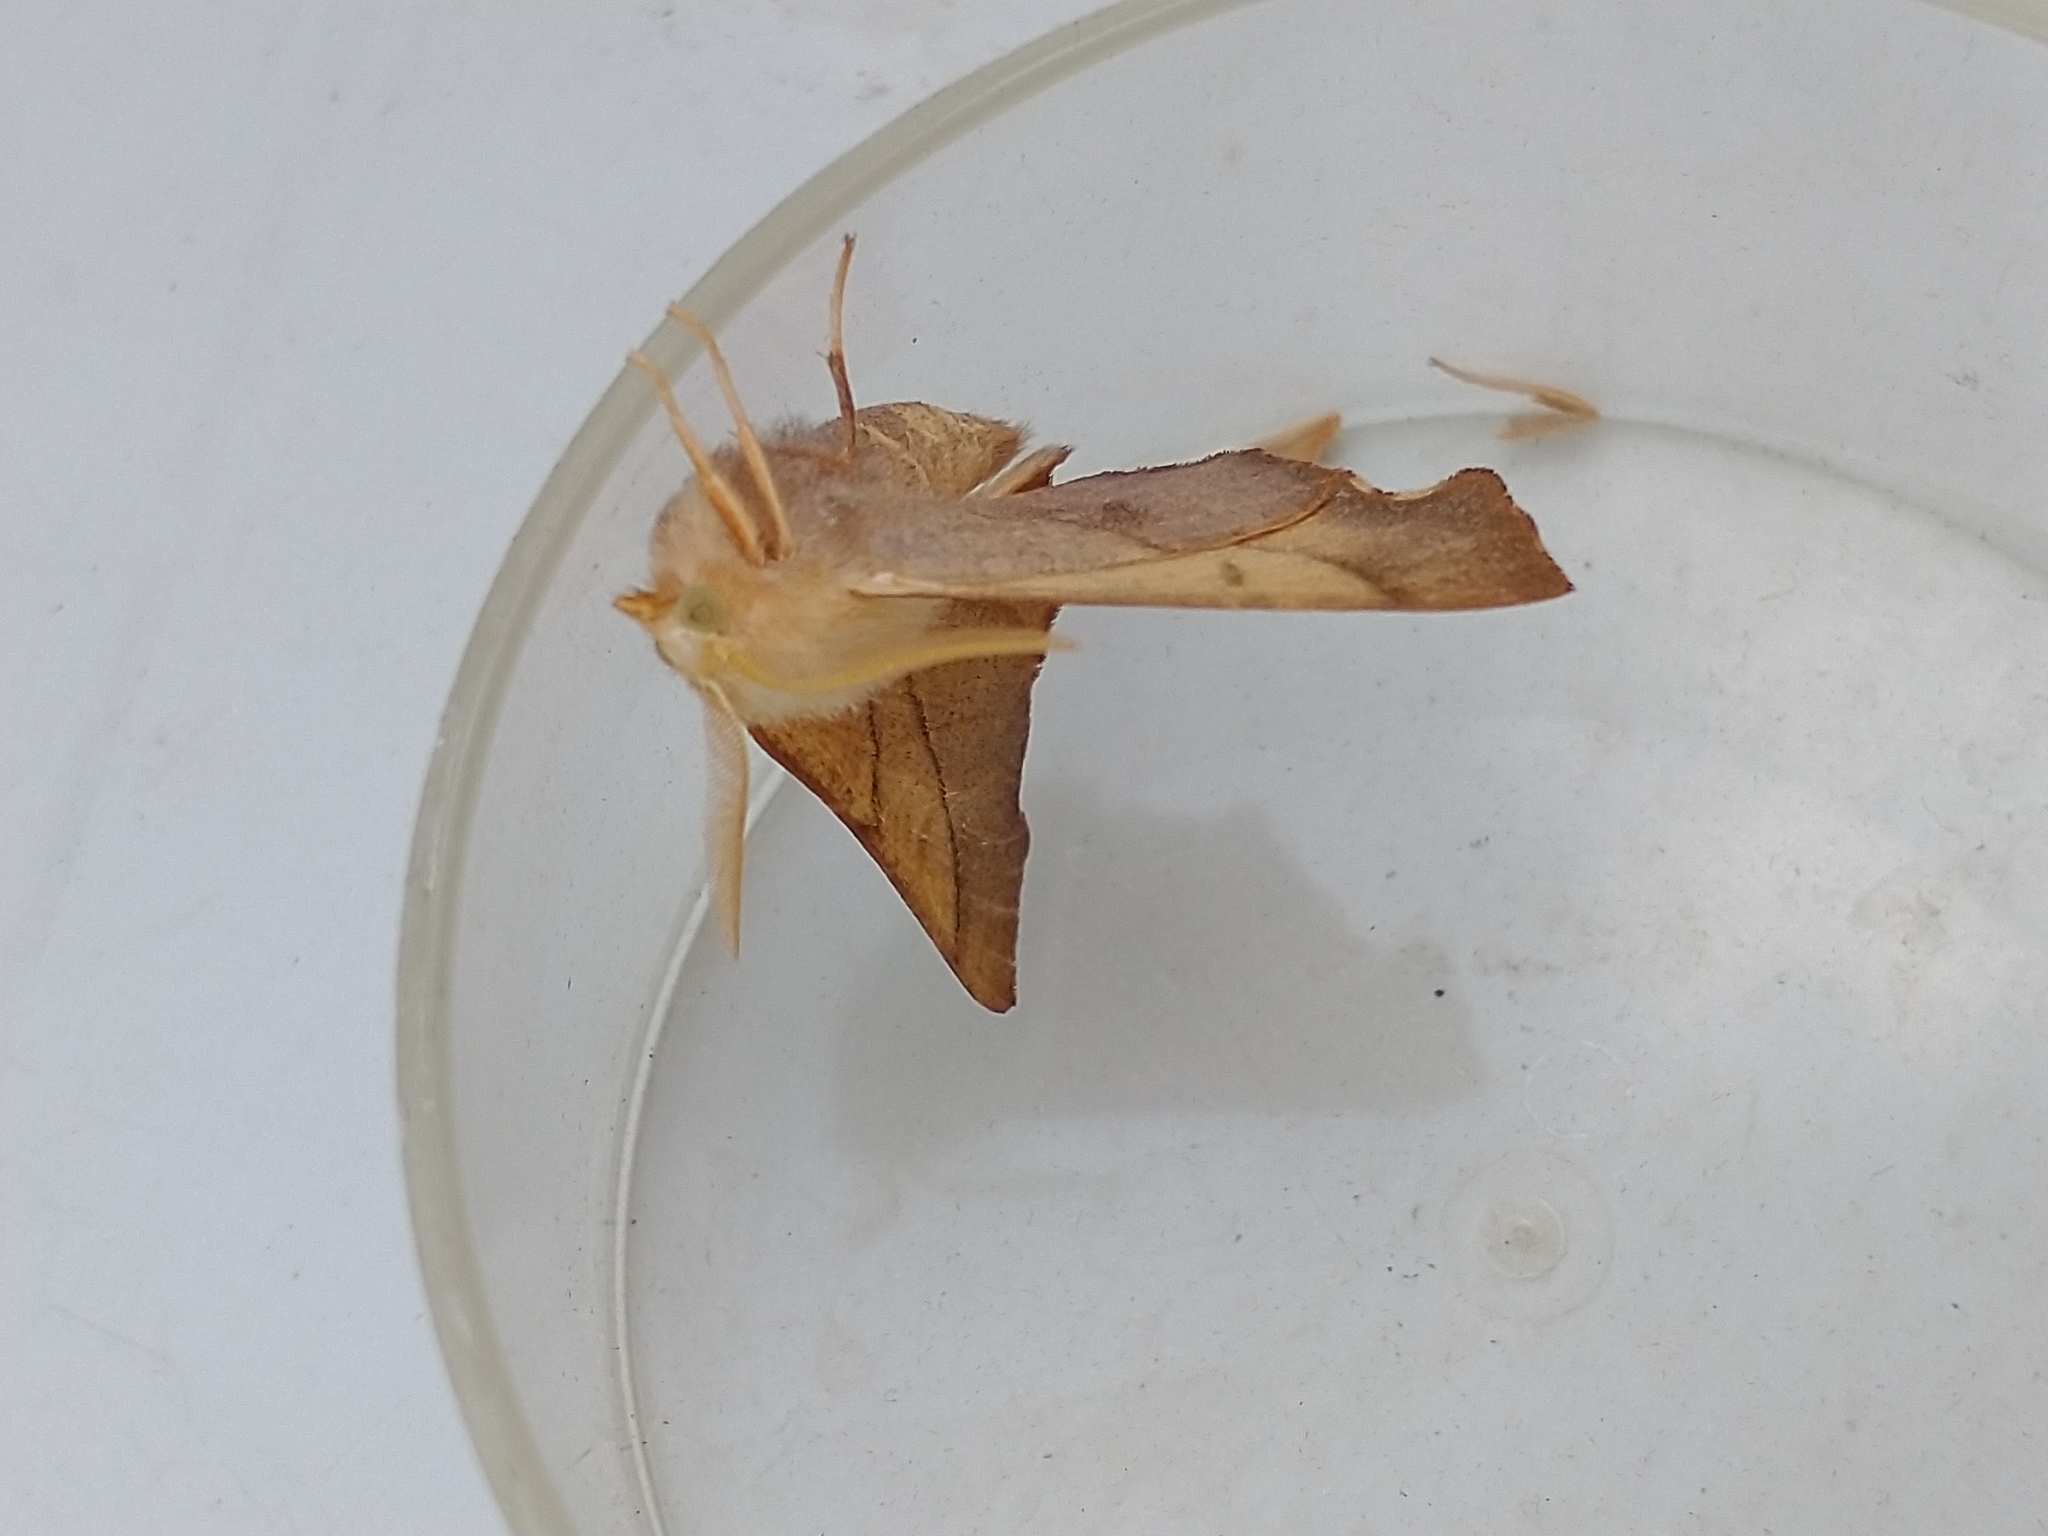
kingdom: Animalia
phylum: Arthropoda
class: Insecta
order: Lepidoptera
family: Geometridae
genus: Ennomos
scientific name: Ennomos fuscantaria
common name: Dusky thorn
